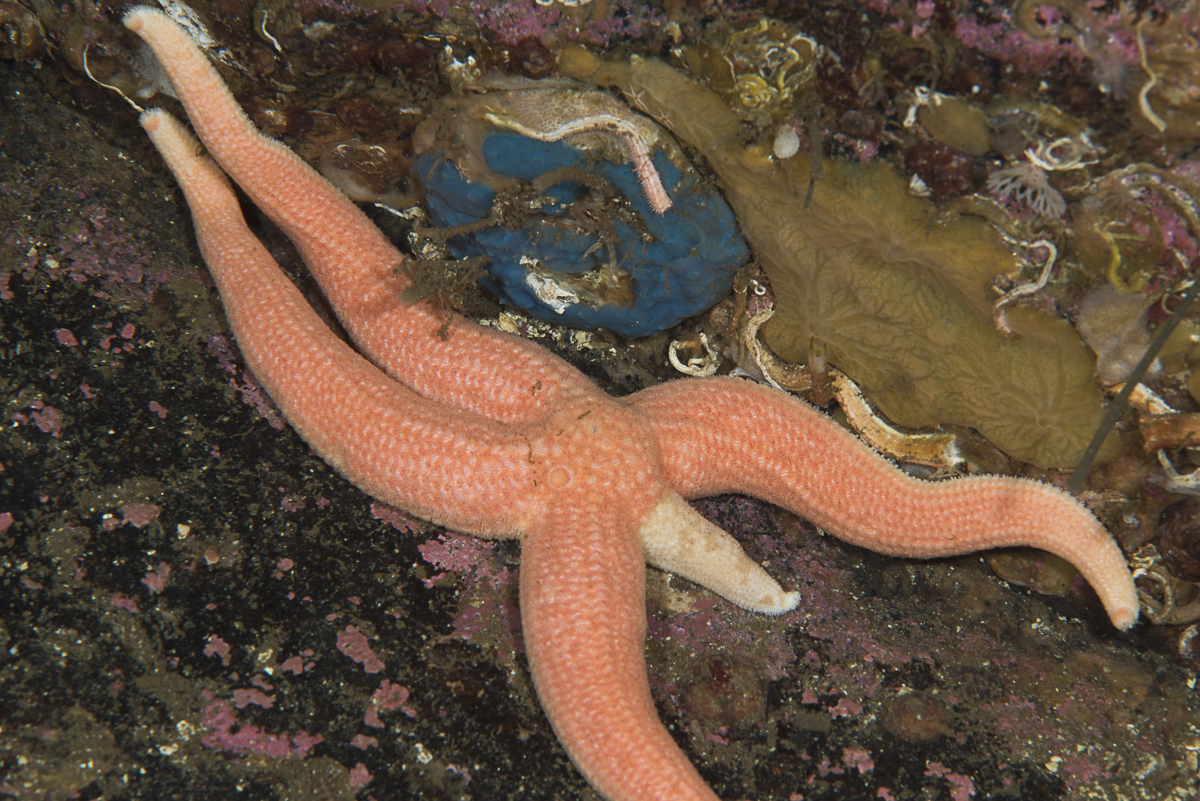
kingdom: Animalia
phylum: Echinodermata
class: Asteroidea
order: Forcipulatida
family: Stichasteridae
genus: Stichastrella
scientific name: Stichastrella rosea
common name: Rosy starfish
